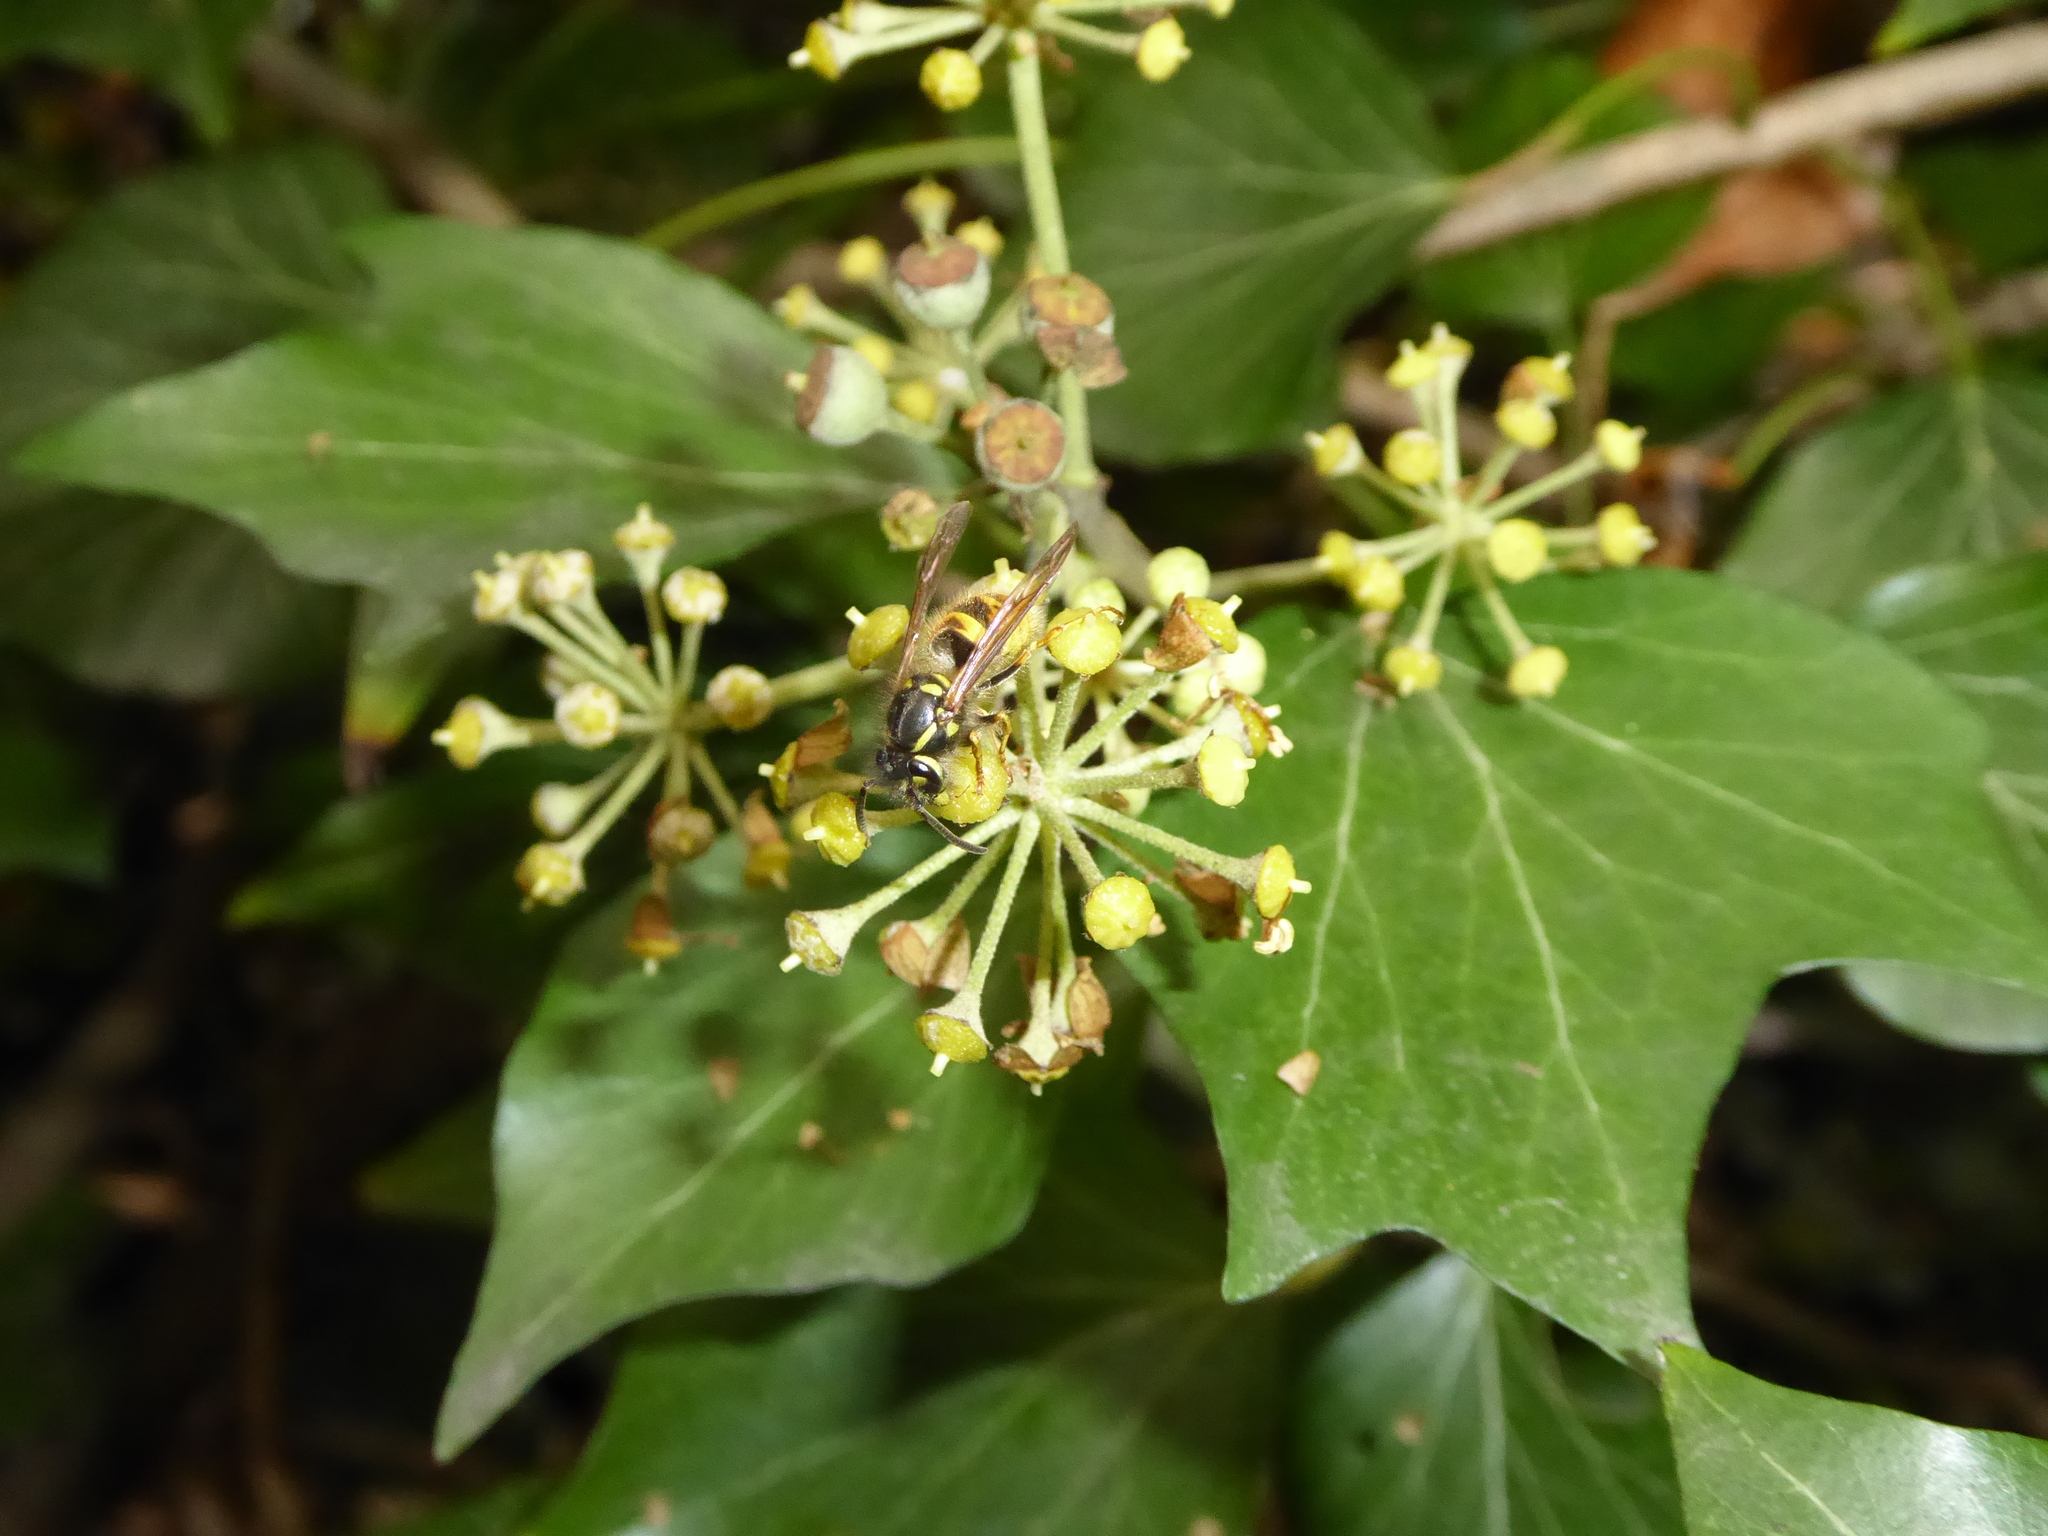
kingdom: Animalia
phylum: Arthropoda
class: Insecta
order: Hymenoptera
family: Vespidae
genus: Vespula
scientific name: Vespula vulgaris
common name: Common wasp
